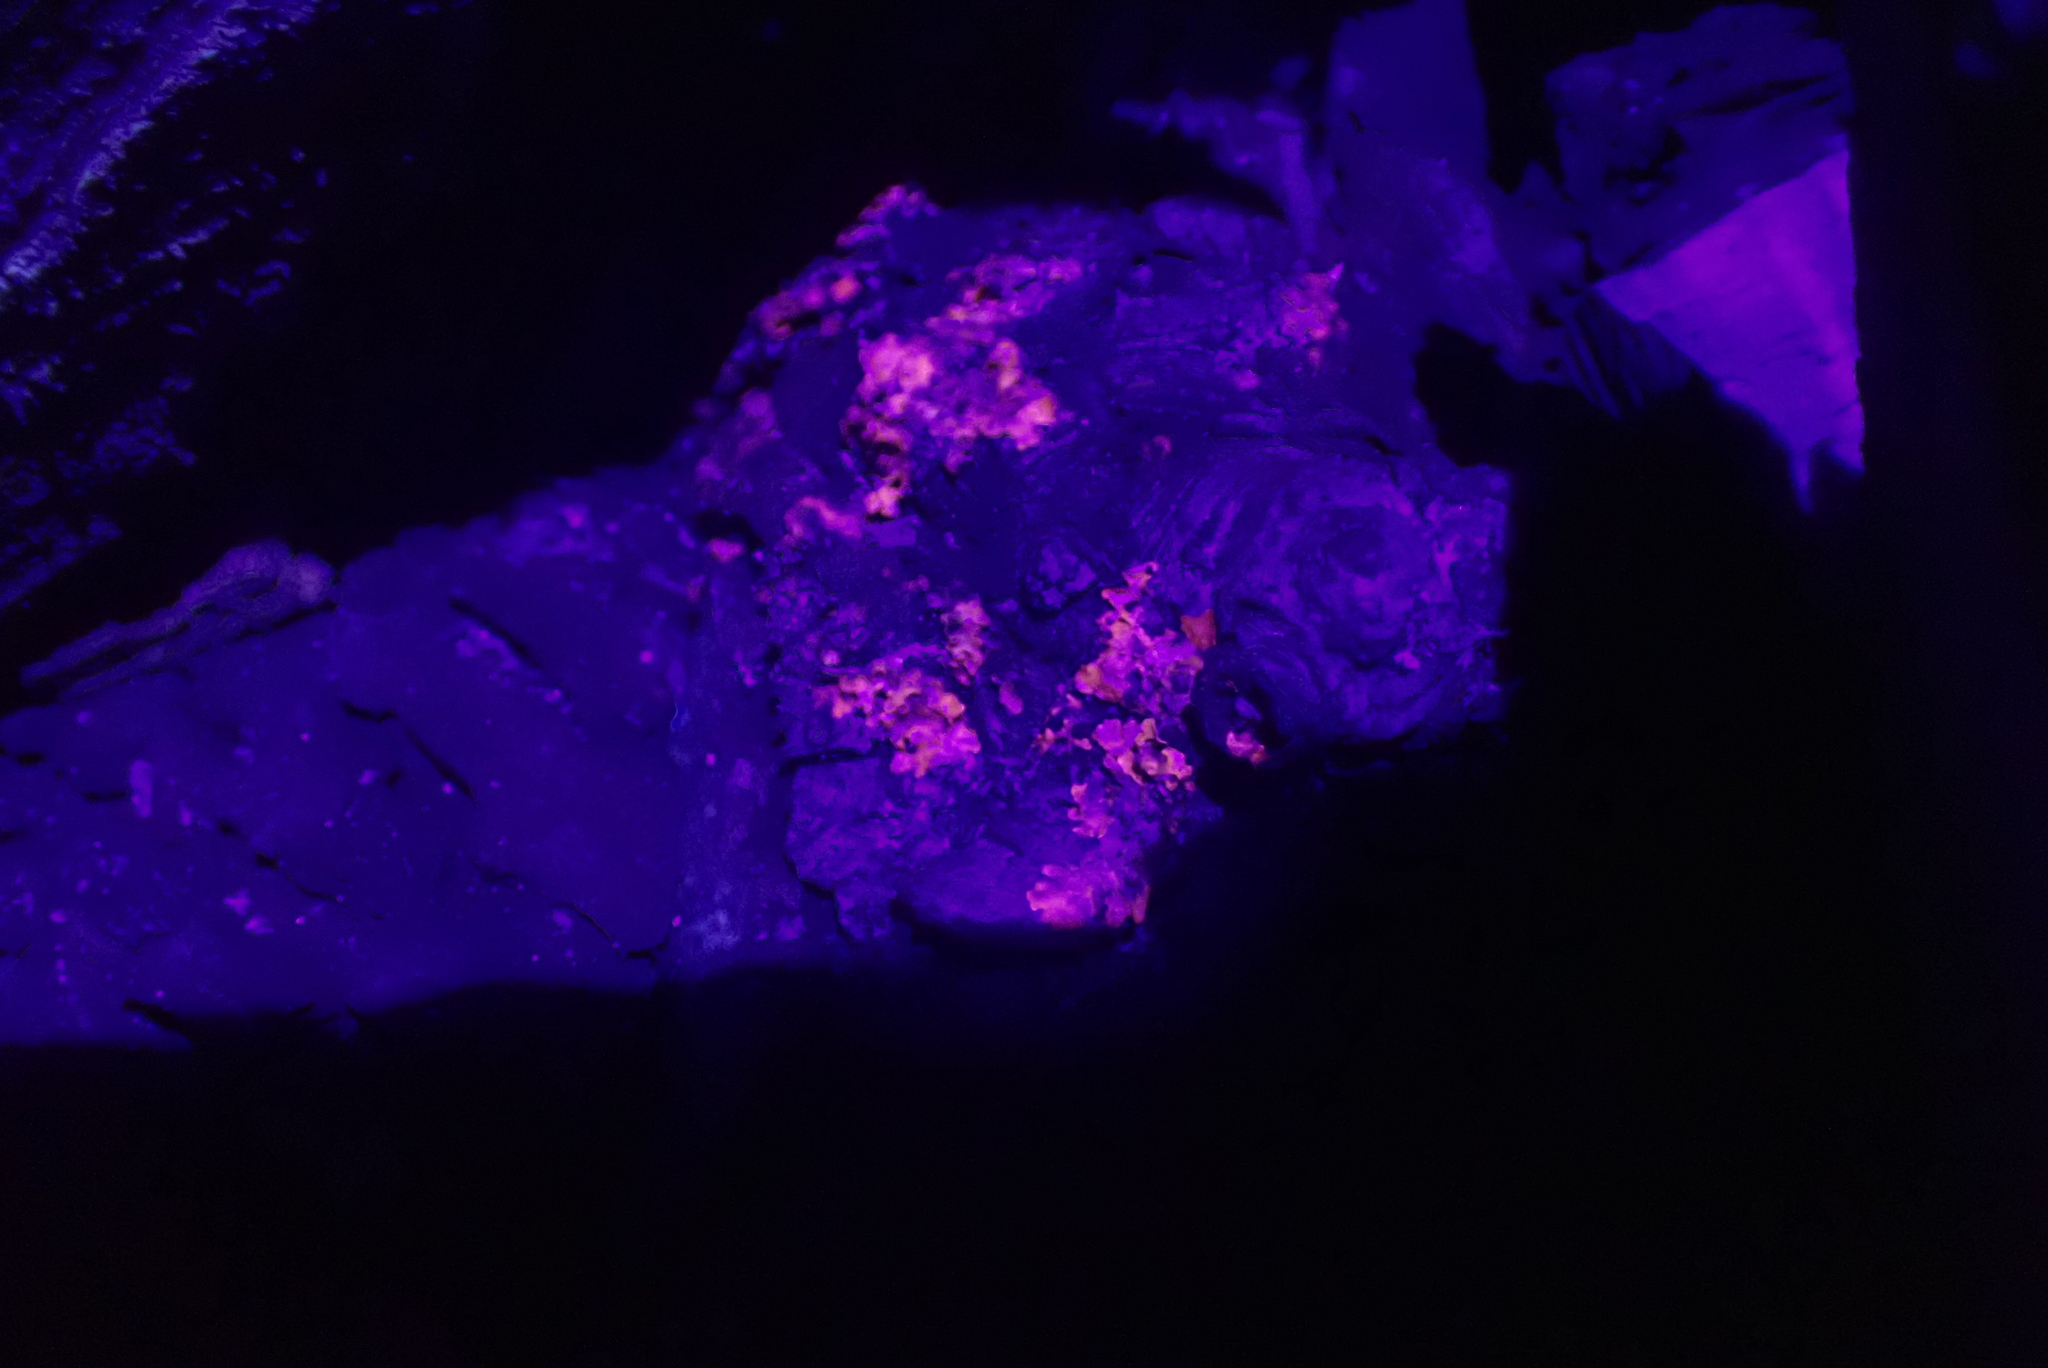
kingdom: Fungi
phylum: Ascomycota
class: Lecanoromycetes
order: Teloschistales
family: Teloschistaceae
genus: Xanthoria
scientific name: Xanthoria parietina
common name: Common orange lichen
